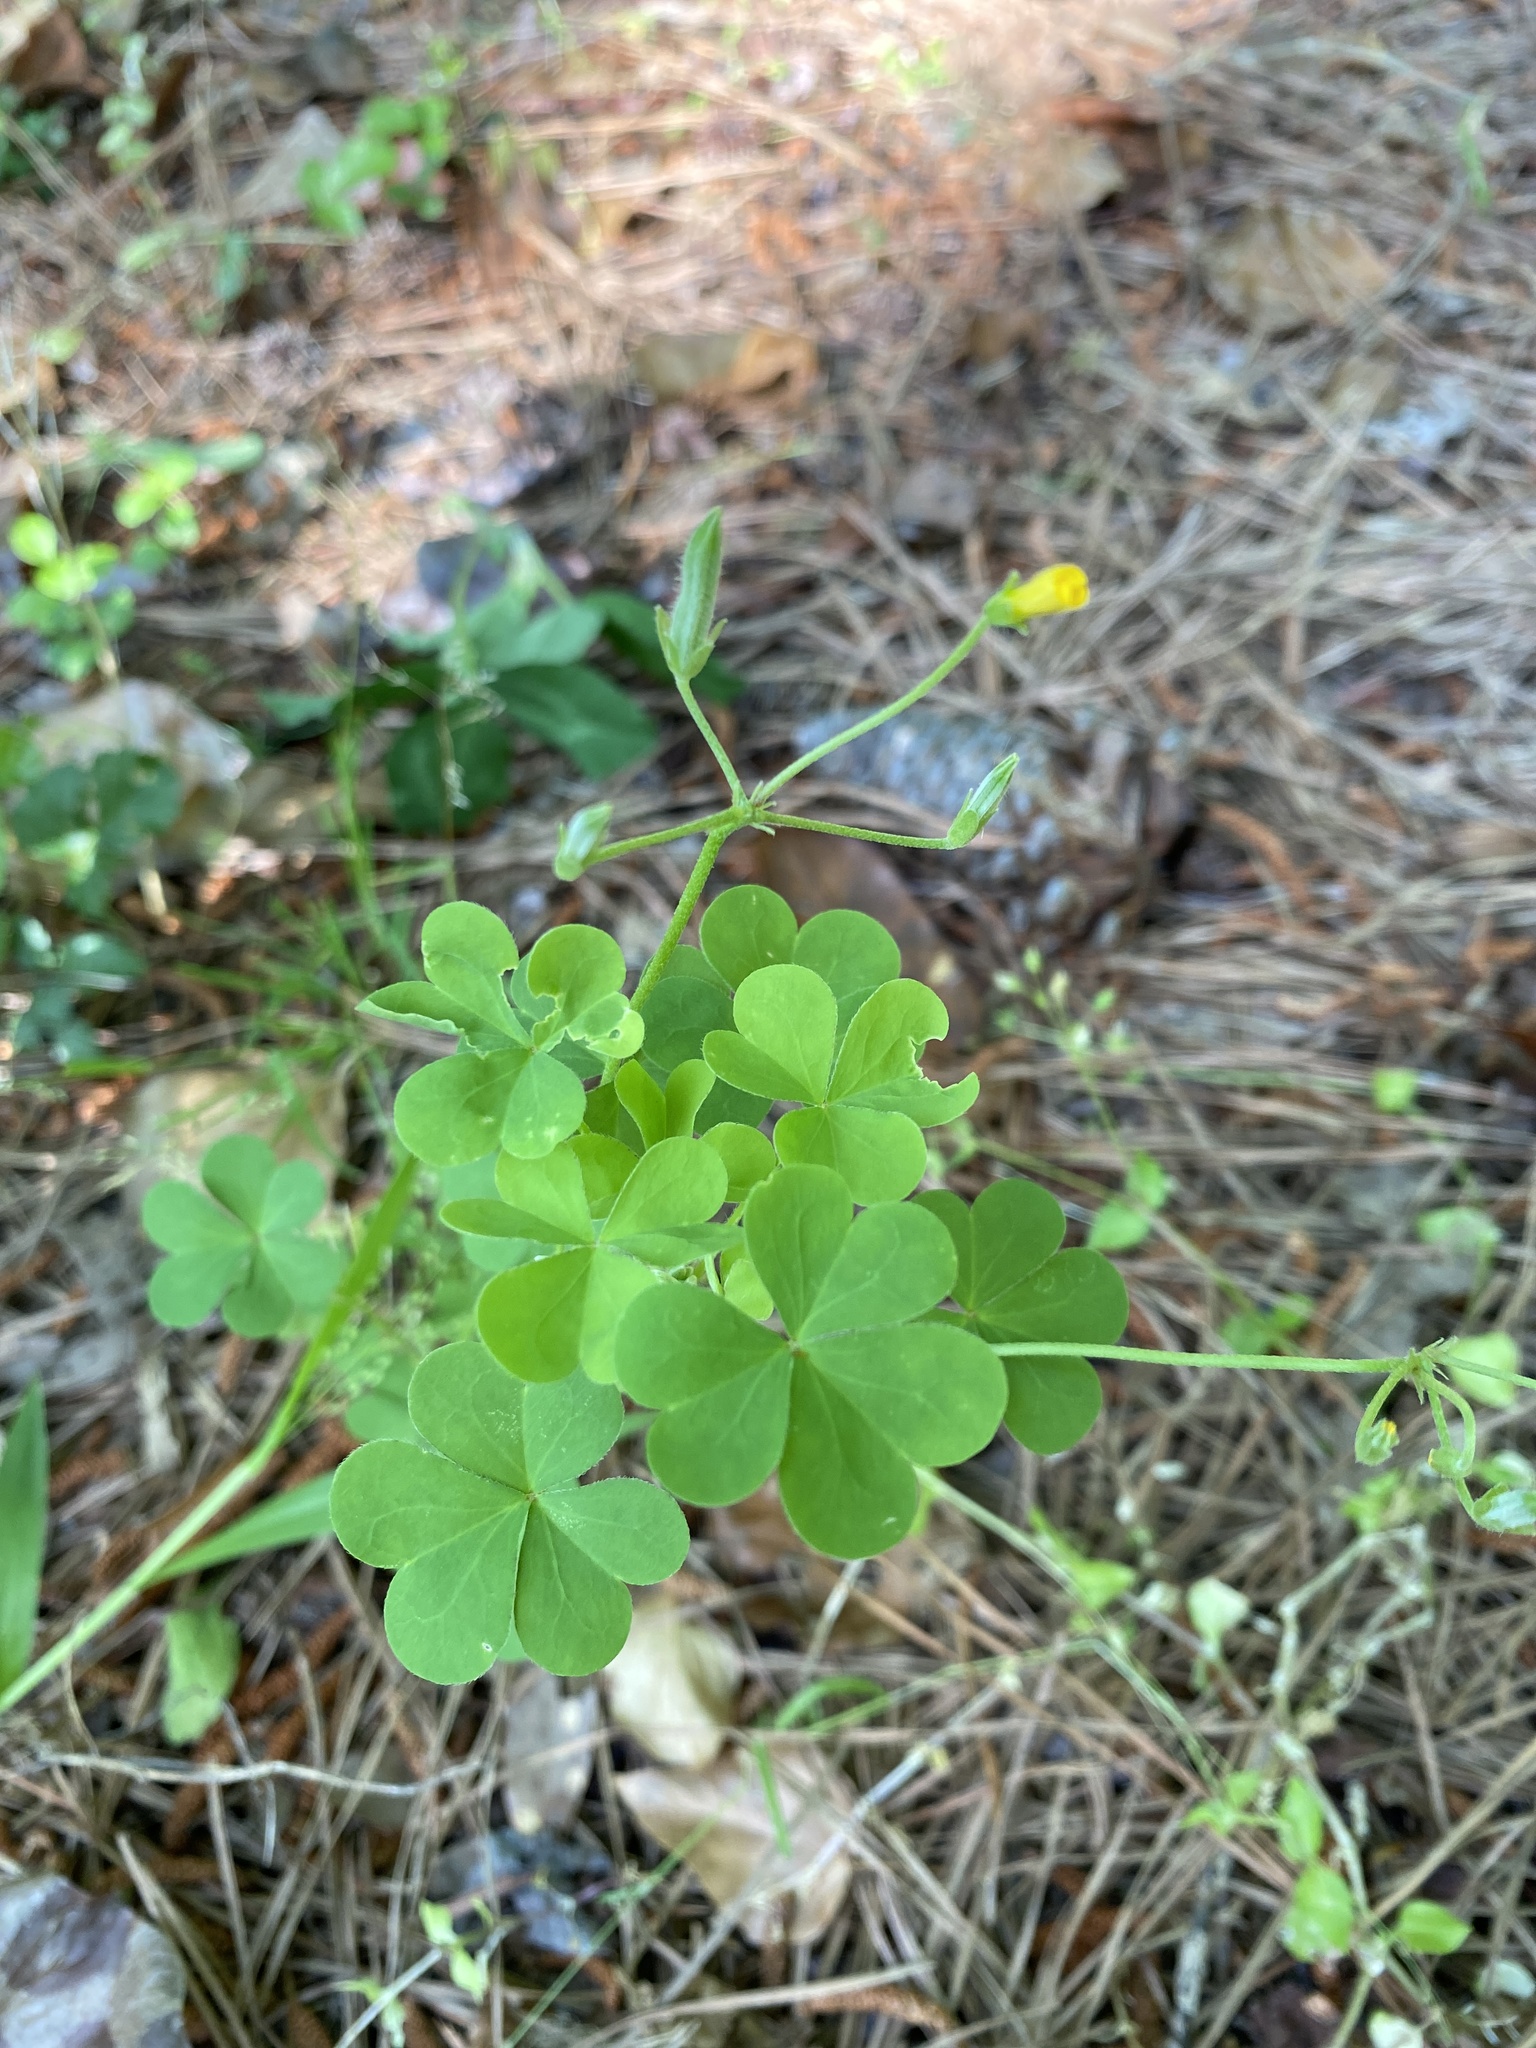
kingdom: Plantae
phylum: Tracheophyta
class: Magnoliopsida
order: Oxalidales
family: Oxalidaceae
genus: Oxalis
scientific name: Oxalis dillenii
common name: Sussex yellow-sorrel
